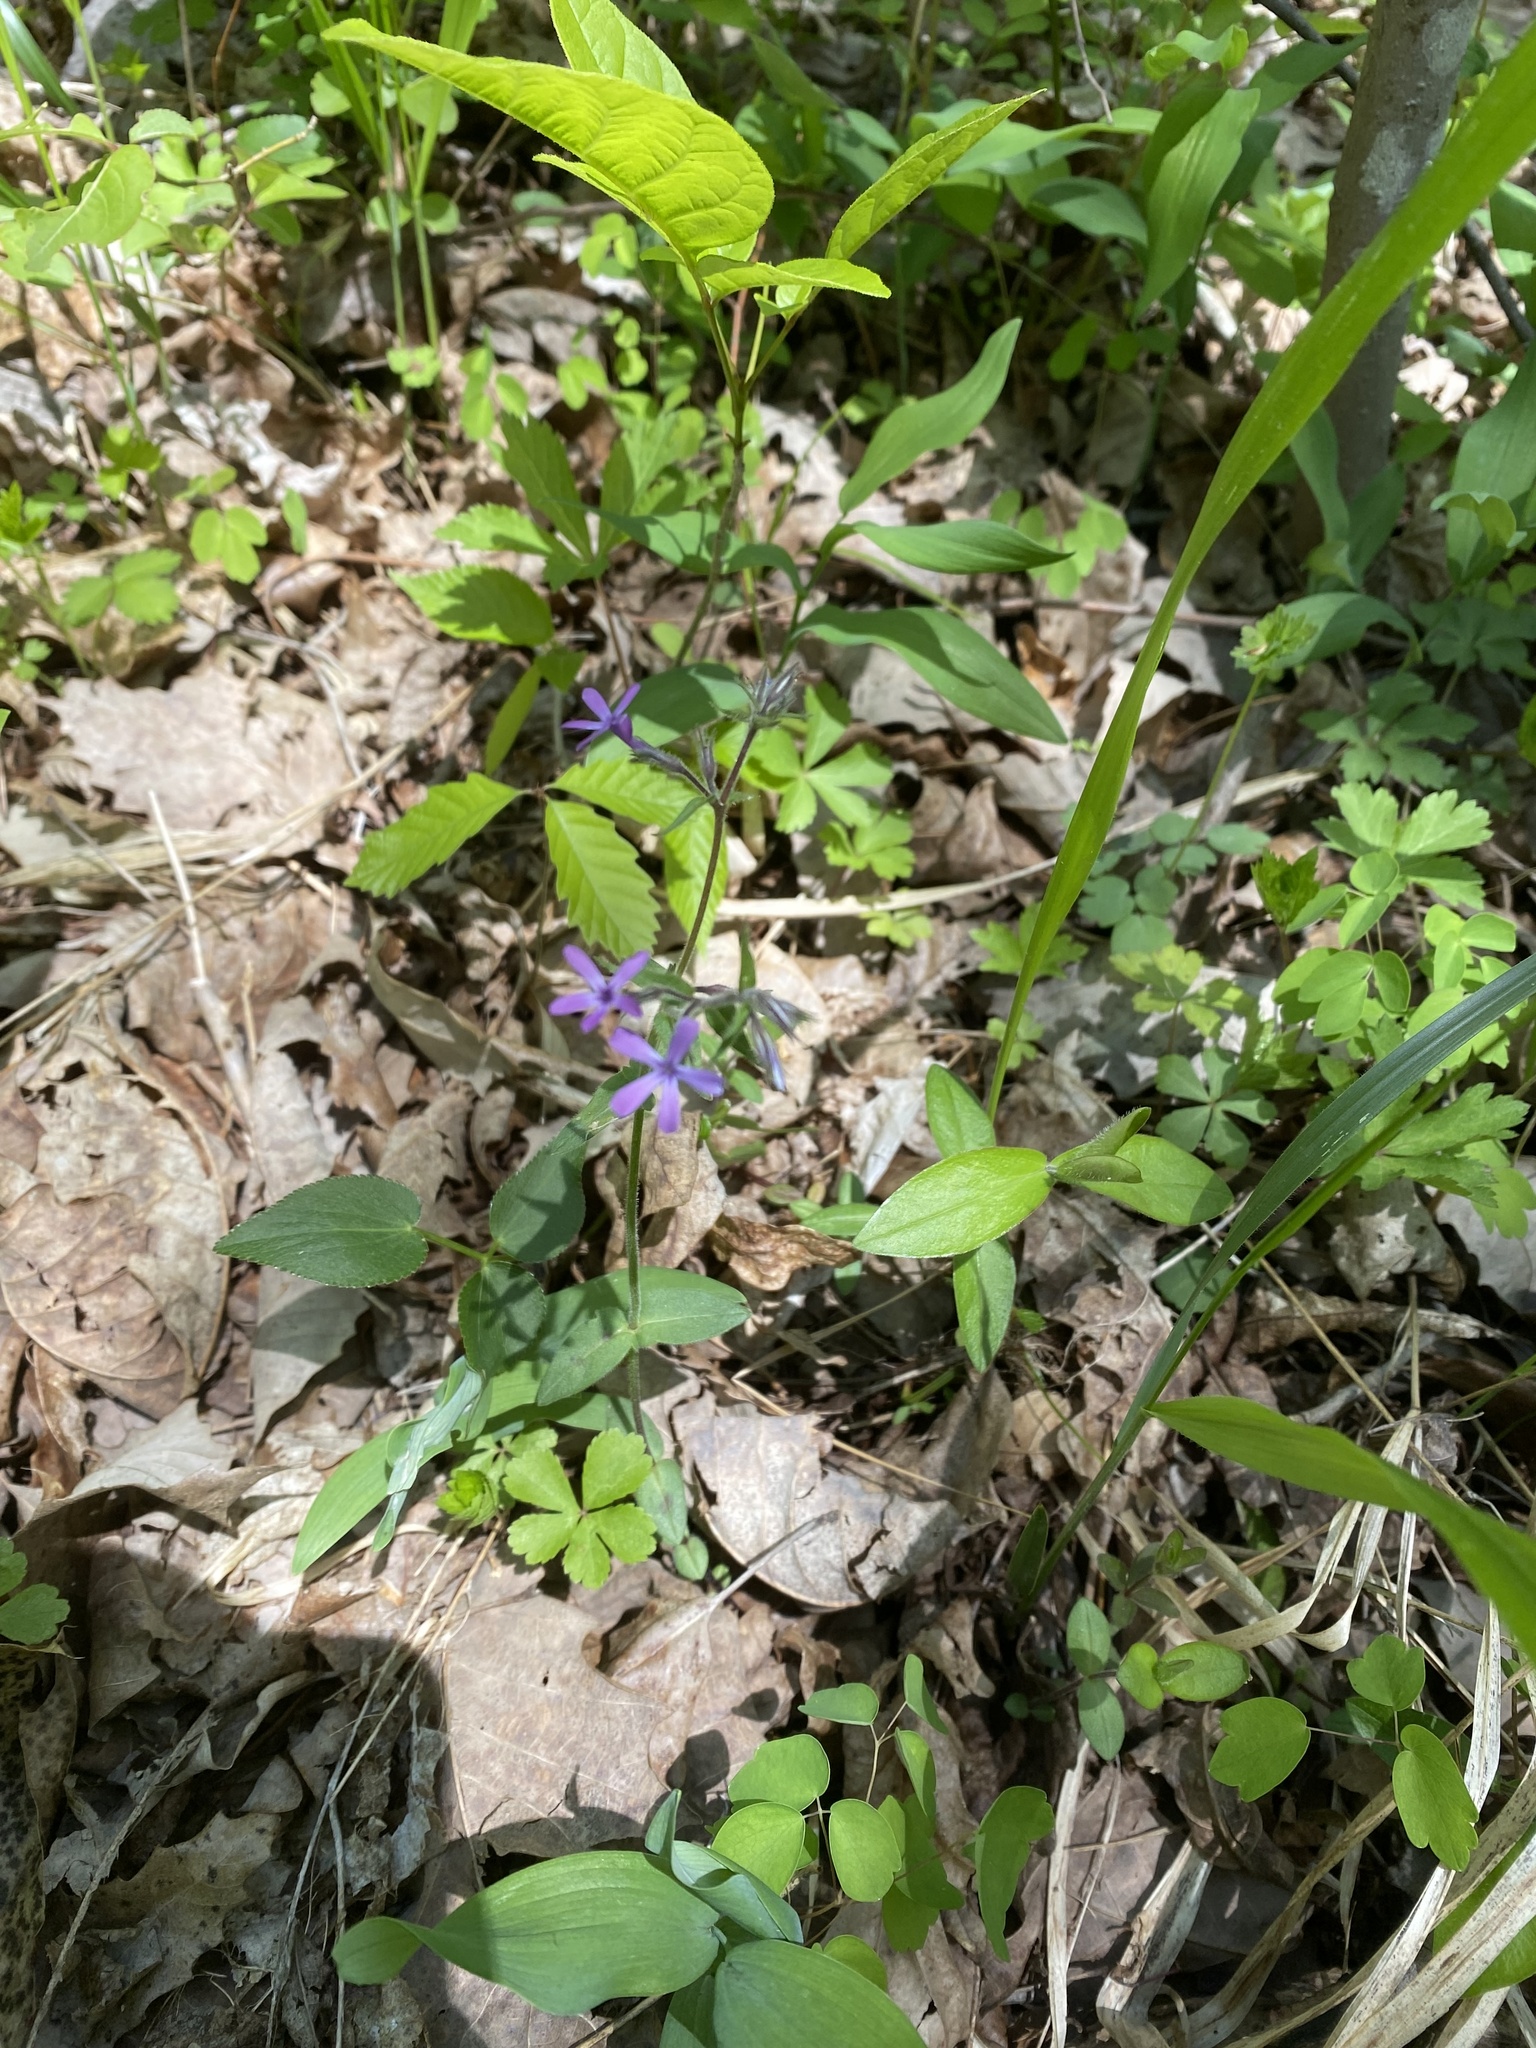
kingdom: Plantae
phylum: Tracheophyta
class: Magnoliopsida
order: Ericales
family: Polemoniaceae
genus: Phlox
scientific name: Phlox divaricata
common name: Blue phlox
